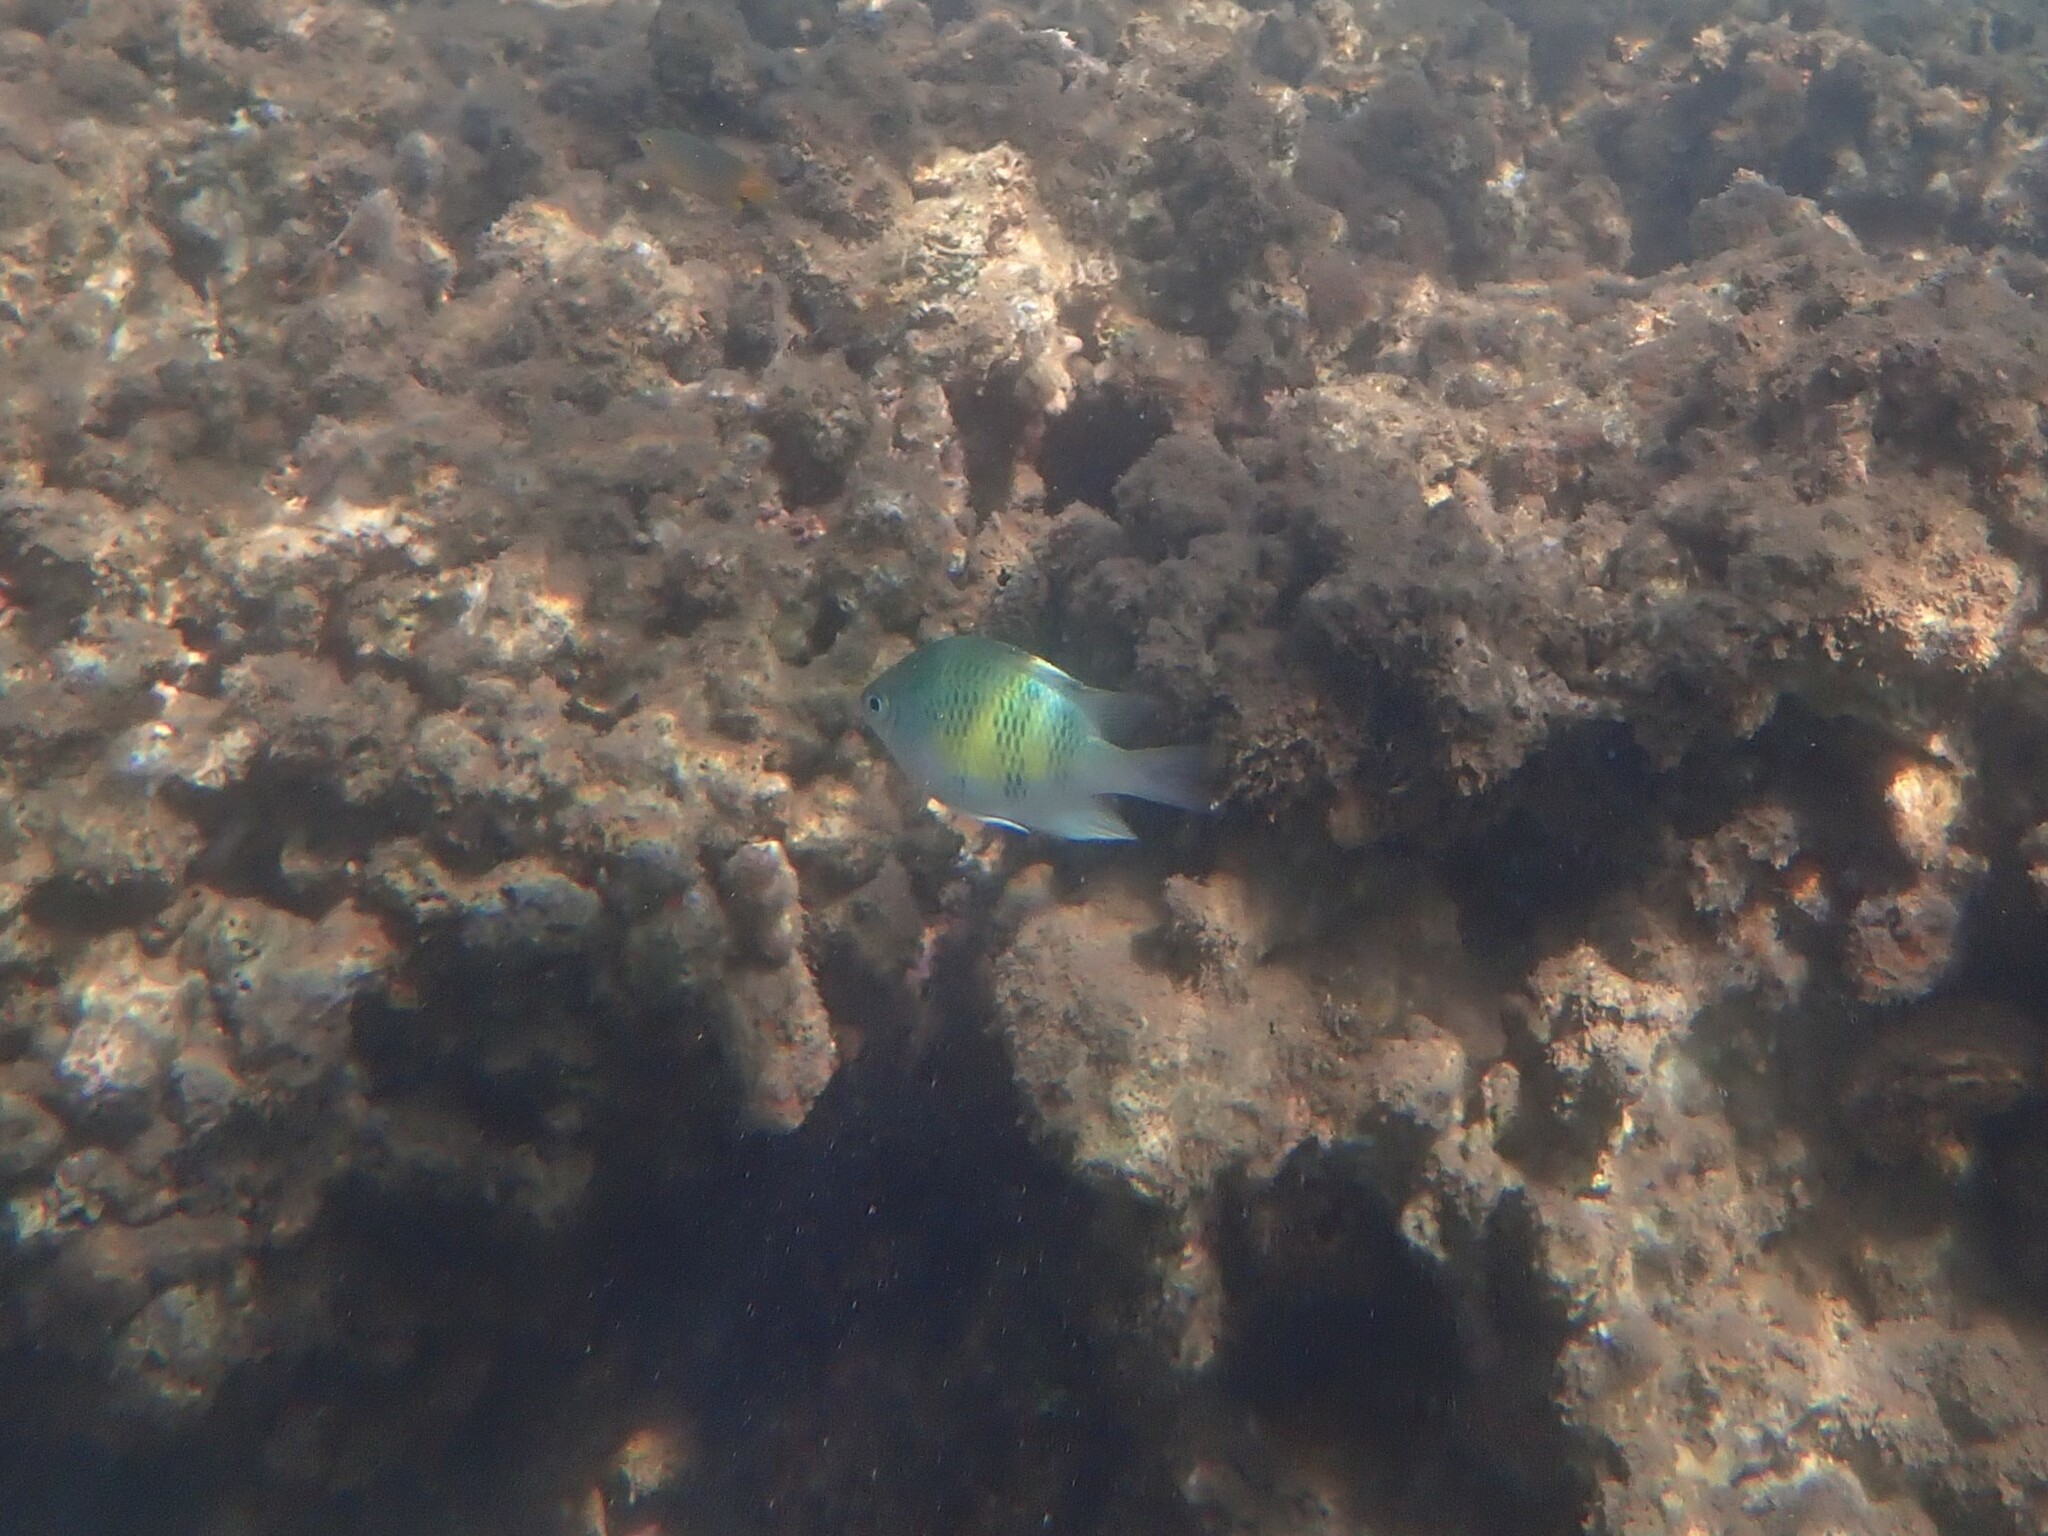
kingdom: Animalia
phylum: Chordata
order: Perciformes
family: Pomacentridae
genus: Amblyglyphidodon
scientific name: Amblyglyphidodon curacao
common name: Staghorn damsel
